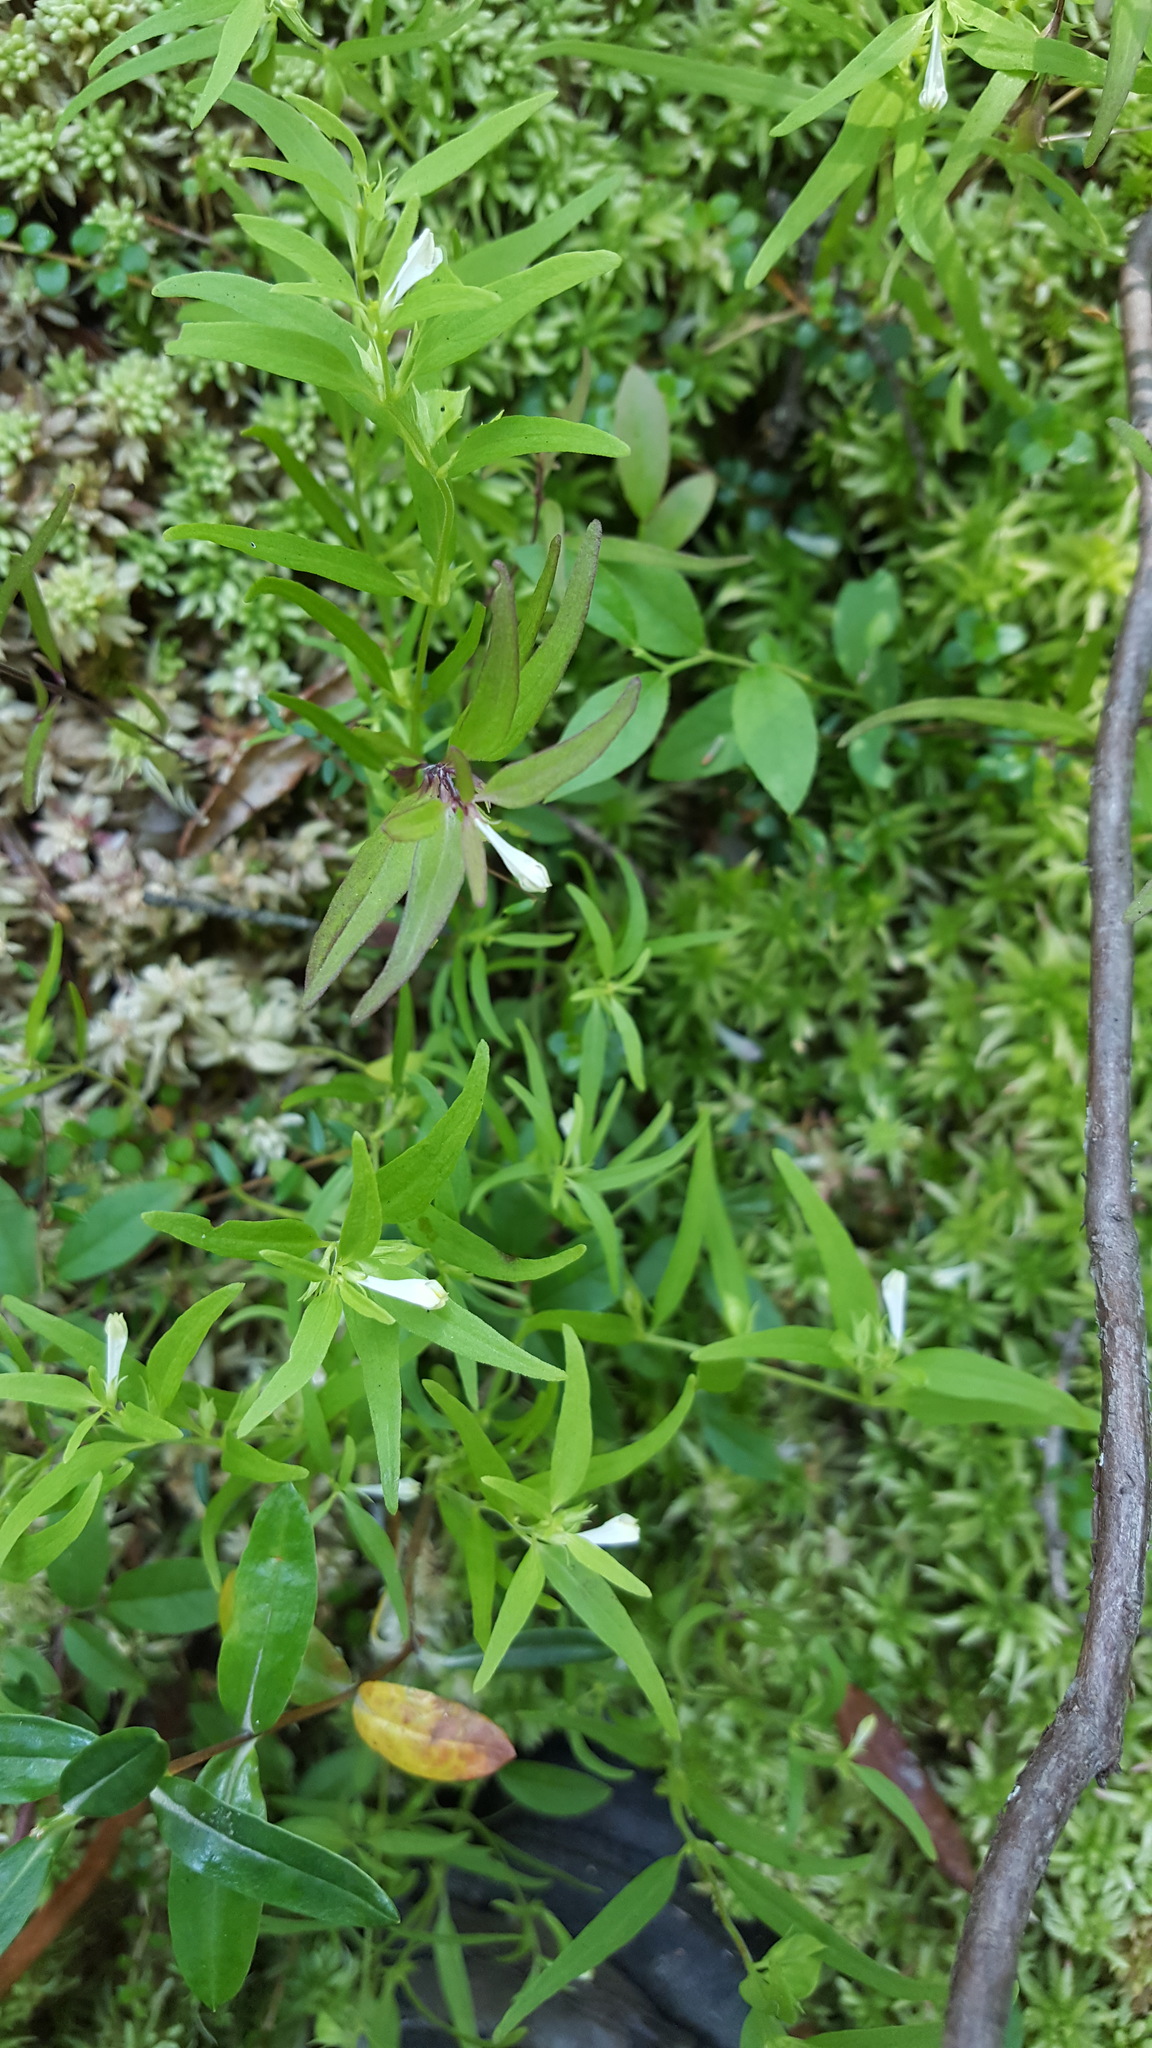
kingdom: Plantae
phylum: Tracheophyta
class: Magnoliopsida
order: Lamiales
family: Orobanchaceae
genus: Melampyrum
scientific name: Melampyrum lineare
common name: American cow-wheat
